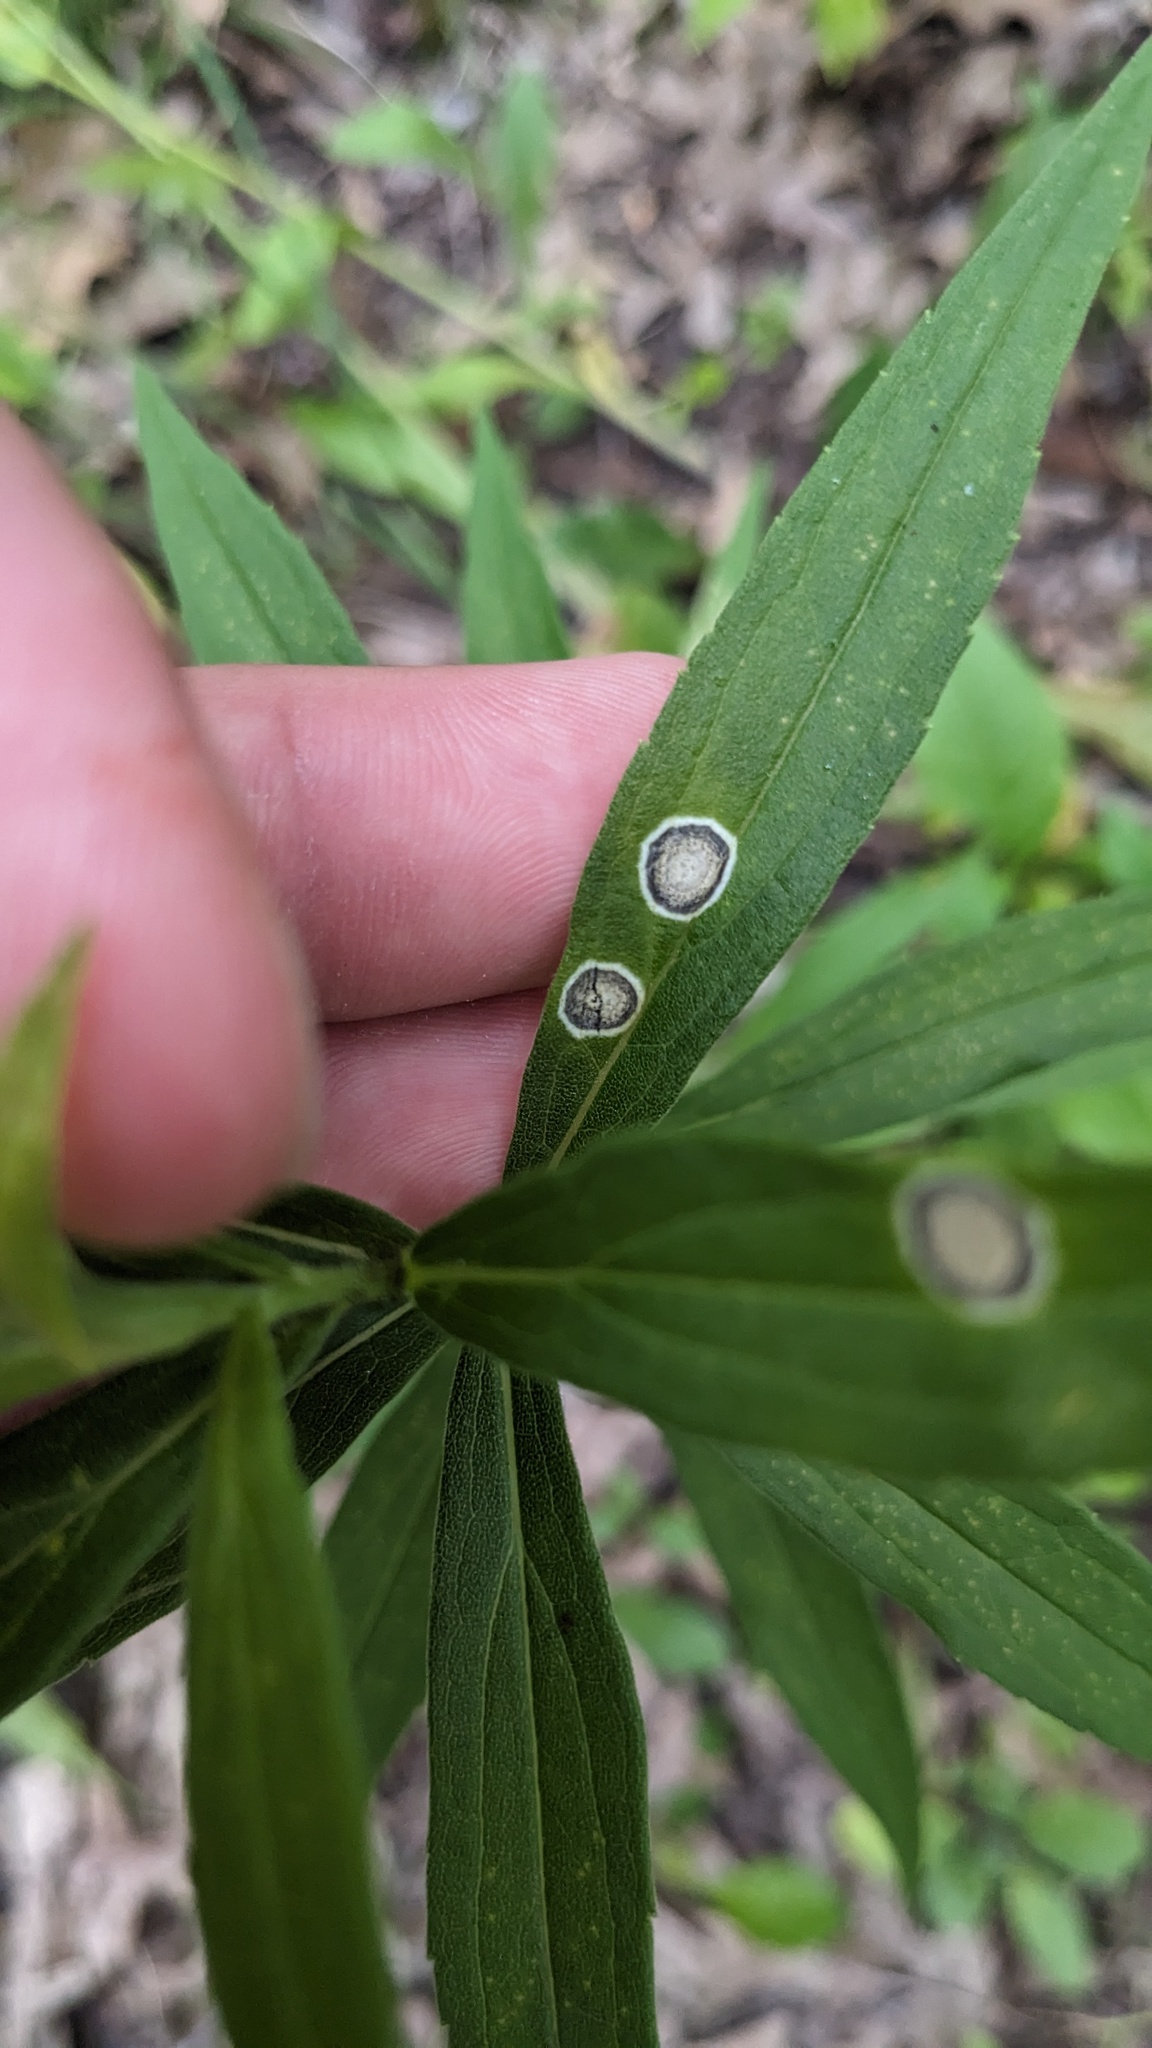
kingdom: Animalia
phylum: Arthropoda
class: Insecta
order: Diptera
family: Cecidomyiidae
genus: Asteromyia
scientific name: Asteromyia carbonifera
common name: Carbonifera goldenrod gall midge
